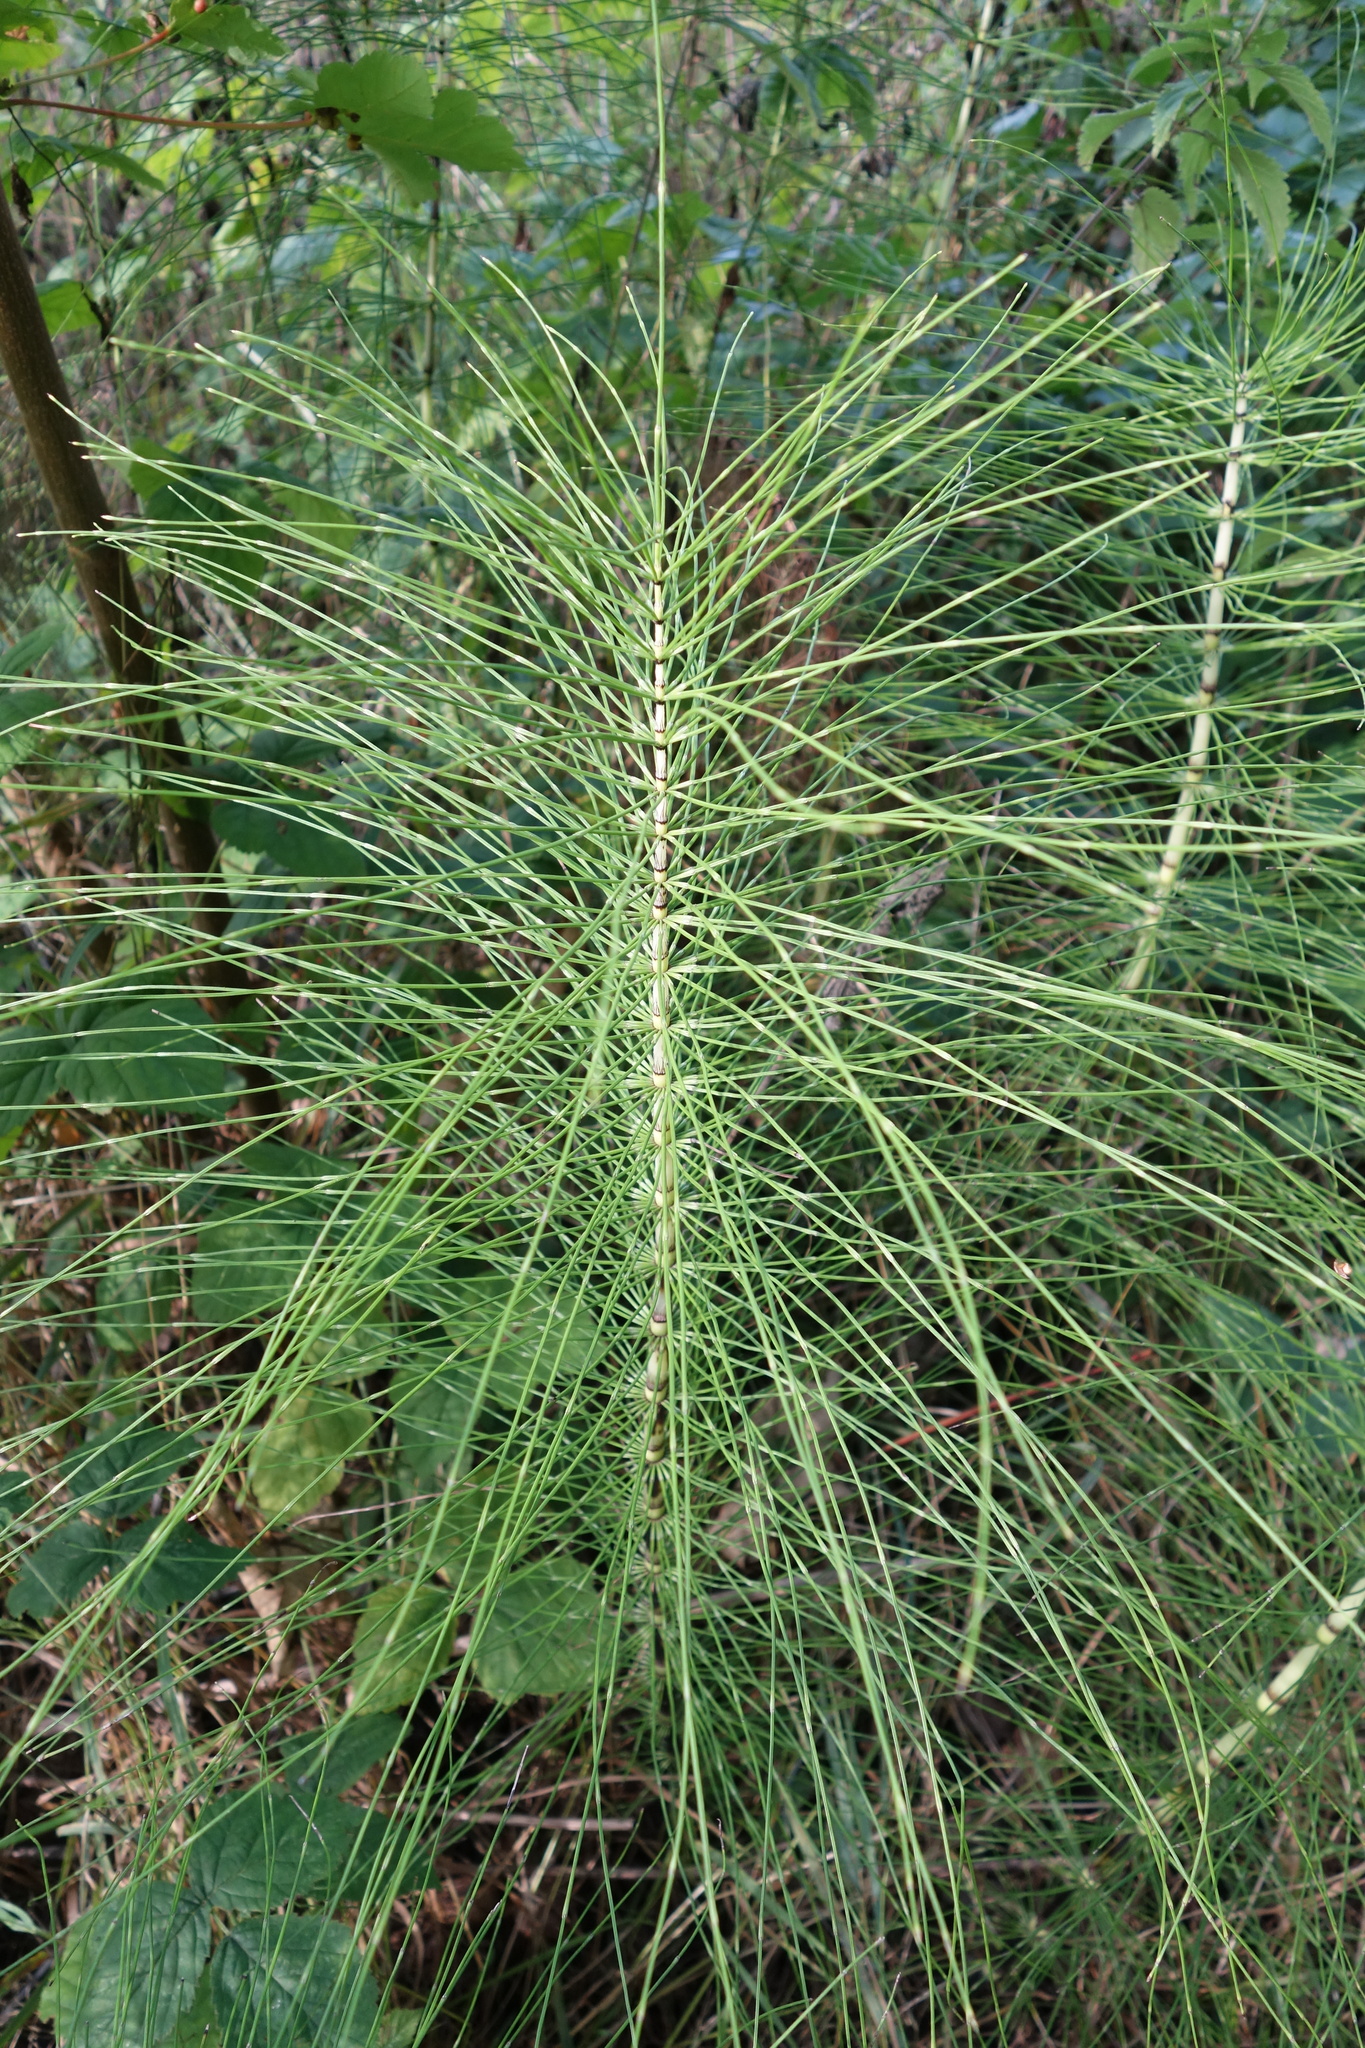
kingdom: Plantae
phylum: Tracheophyta
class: Polypodiopsida
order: Equisetales
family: Equisetaceae
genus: Equisetum
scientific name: Equisetum telmateia
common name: Great horsetail
